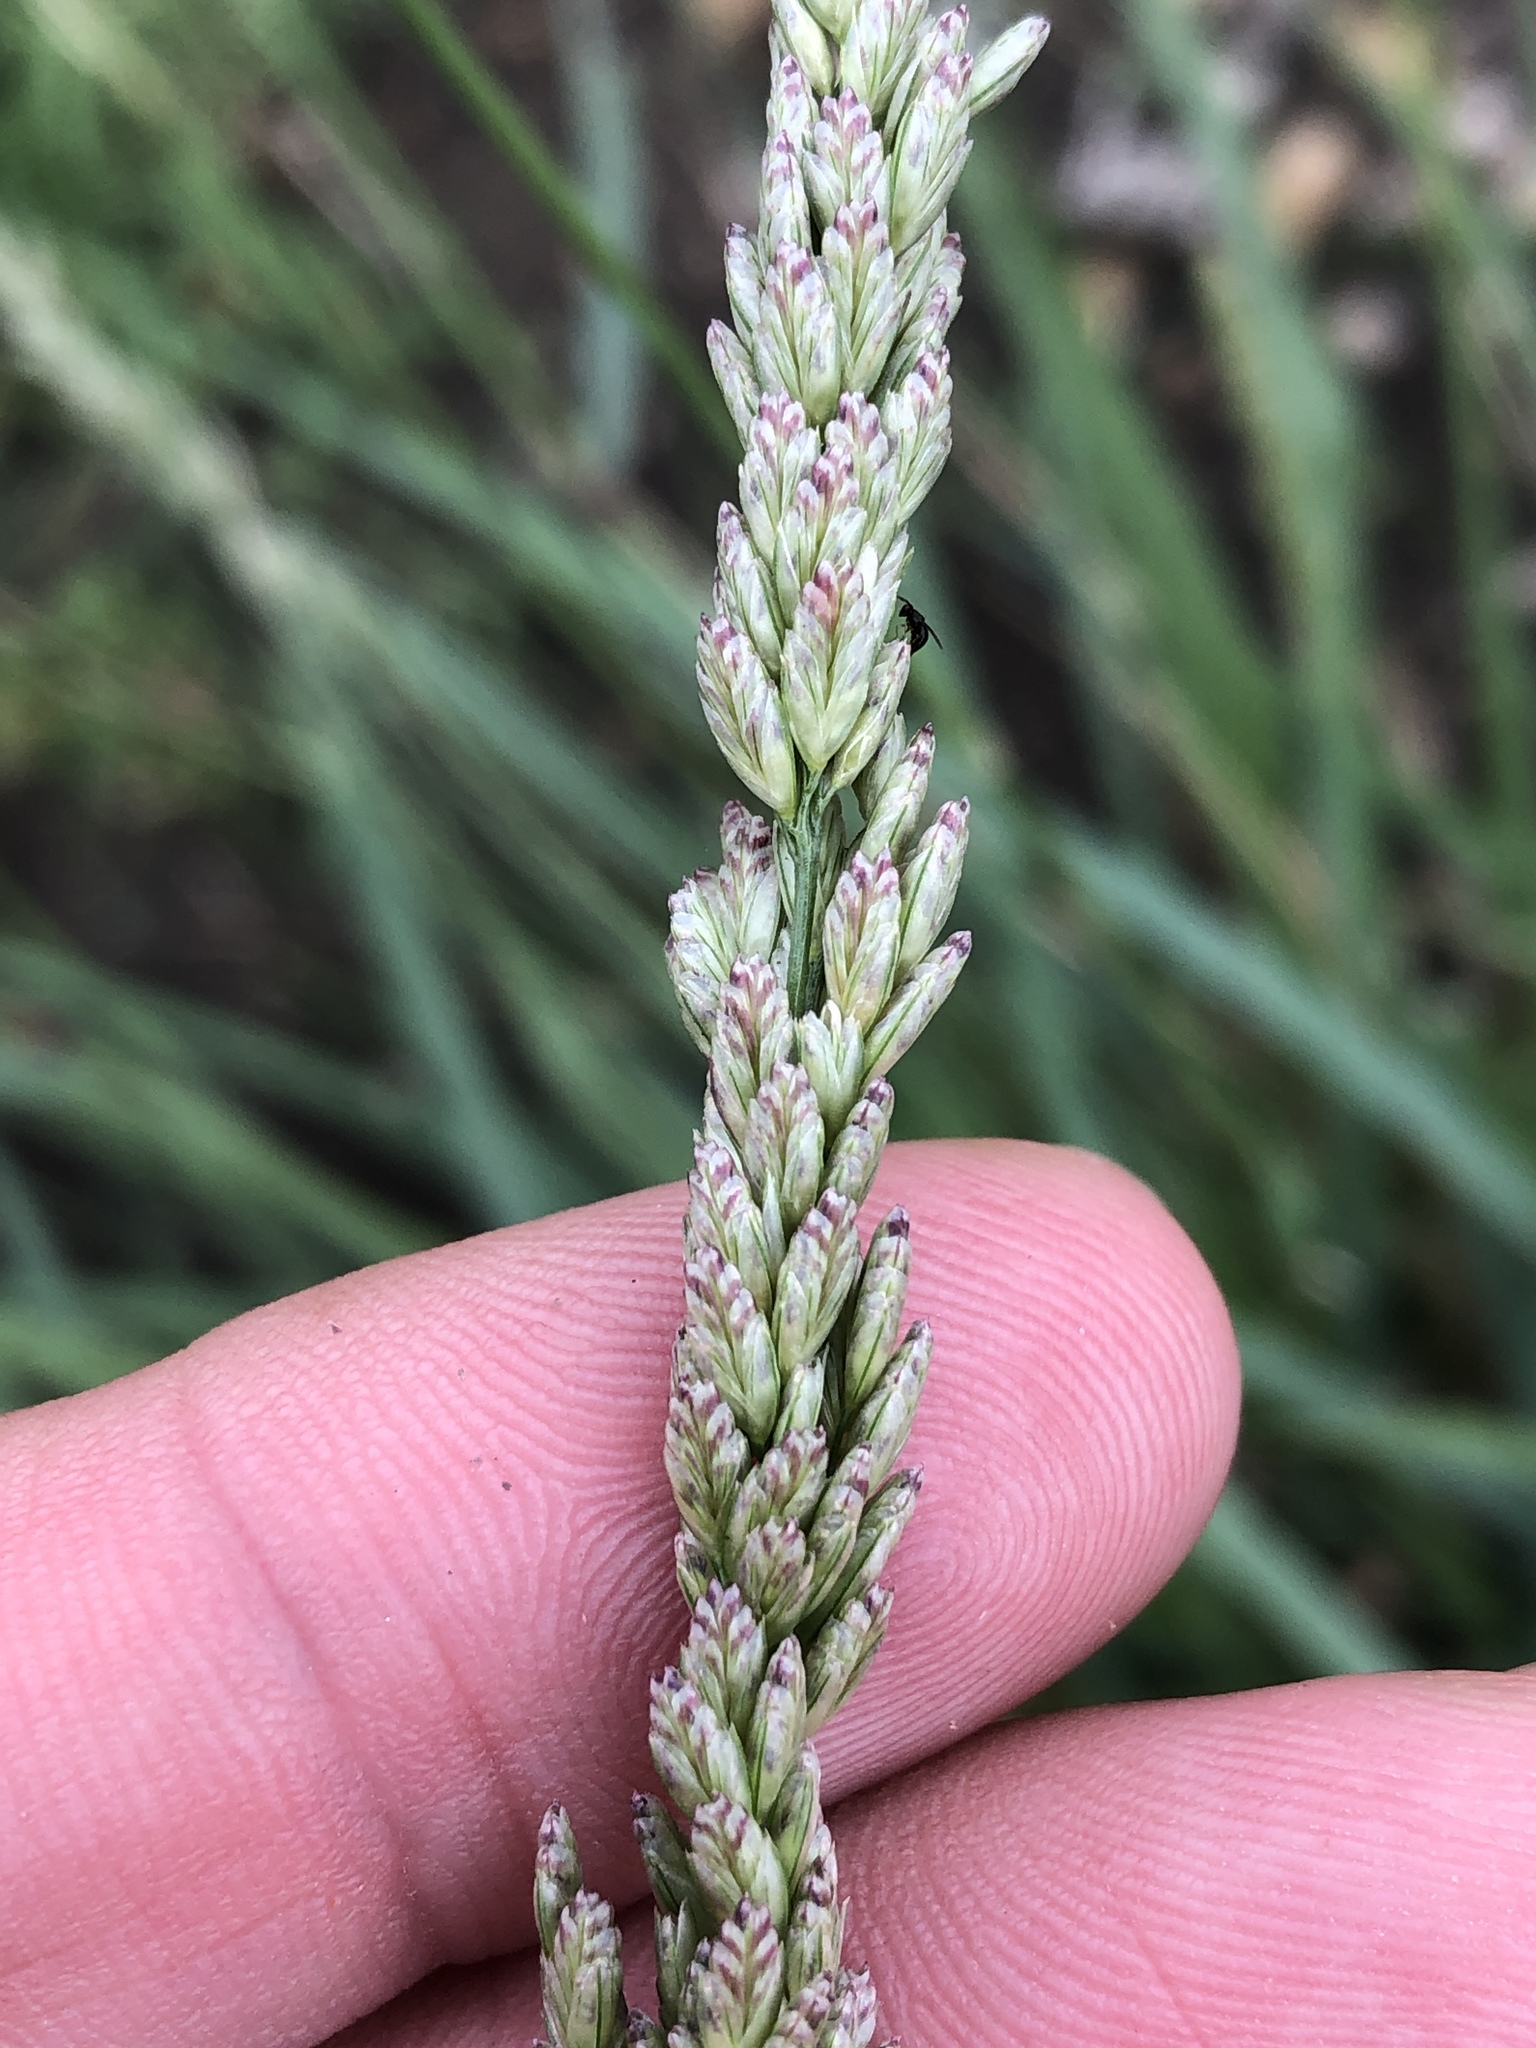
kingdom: Plantae
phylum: Tracheophyta
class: Liliopsida
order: Poales
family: Poaceae
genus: Tridens
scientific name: Tridens albescens
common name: White tridens
